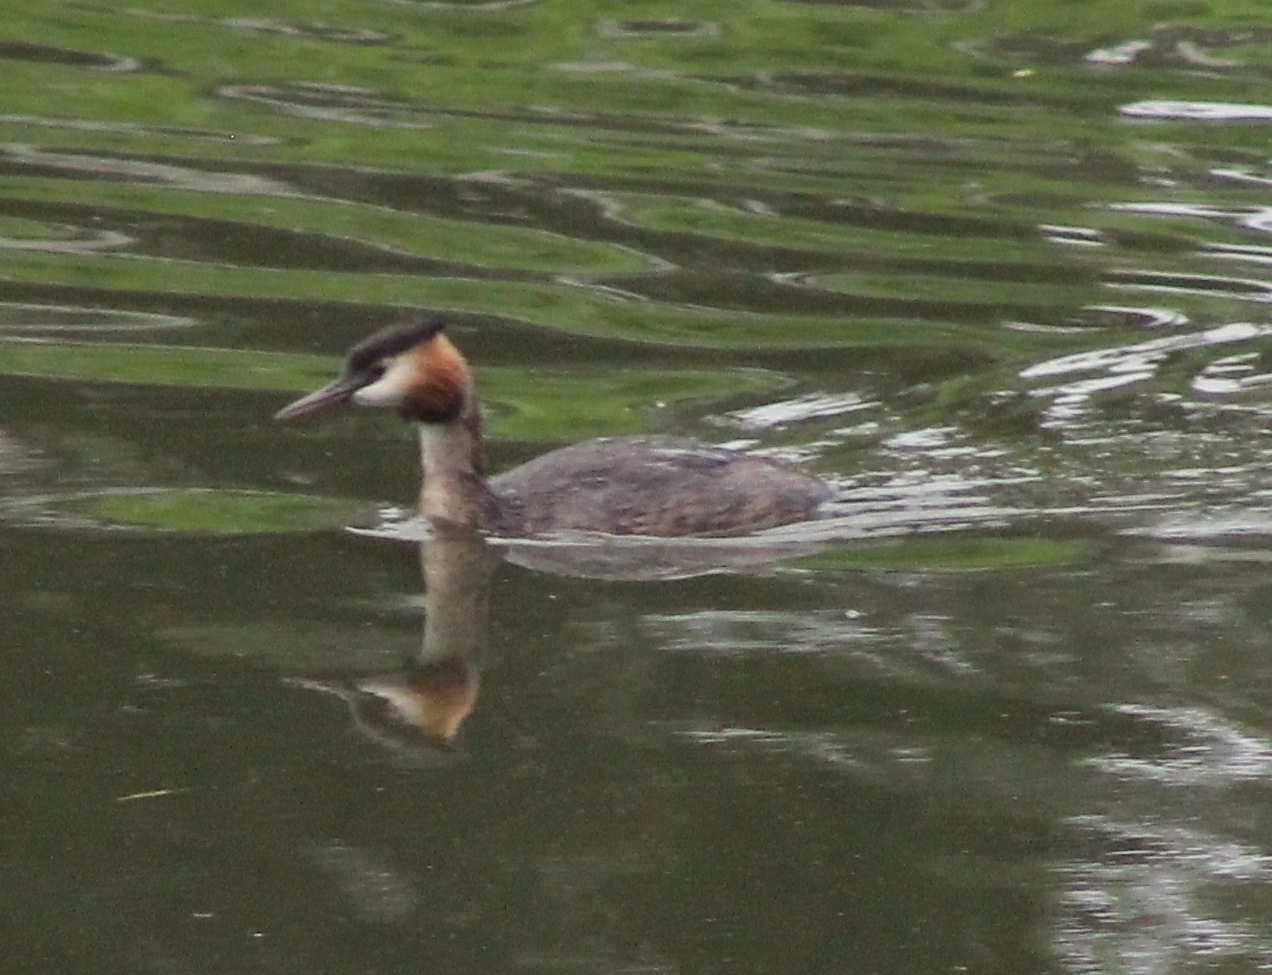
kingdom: Animalia
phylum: Chordata
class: Aves
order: Podicipediformes
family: Podicipedidae
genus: Podiceps
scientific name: Podiceps cristatus
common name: Great crested grebe
